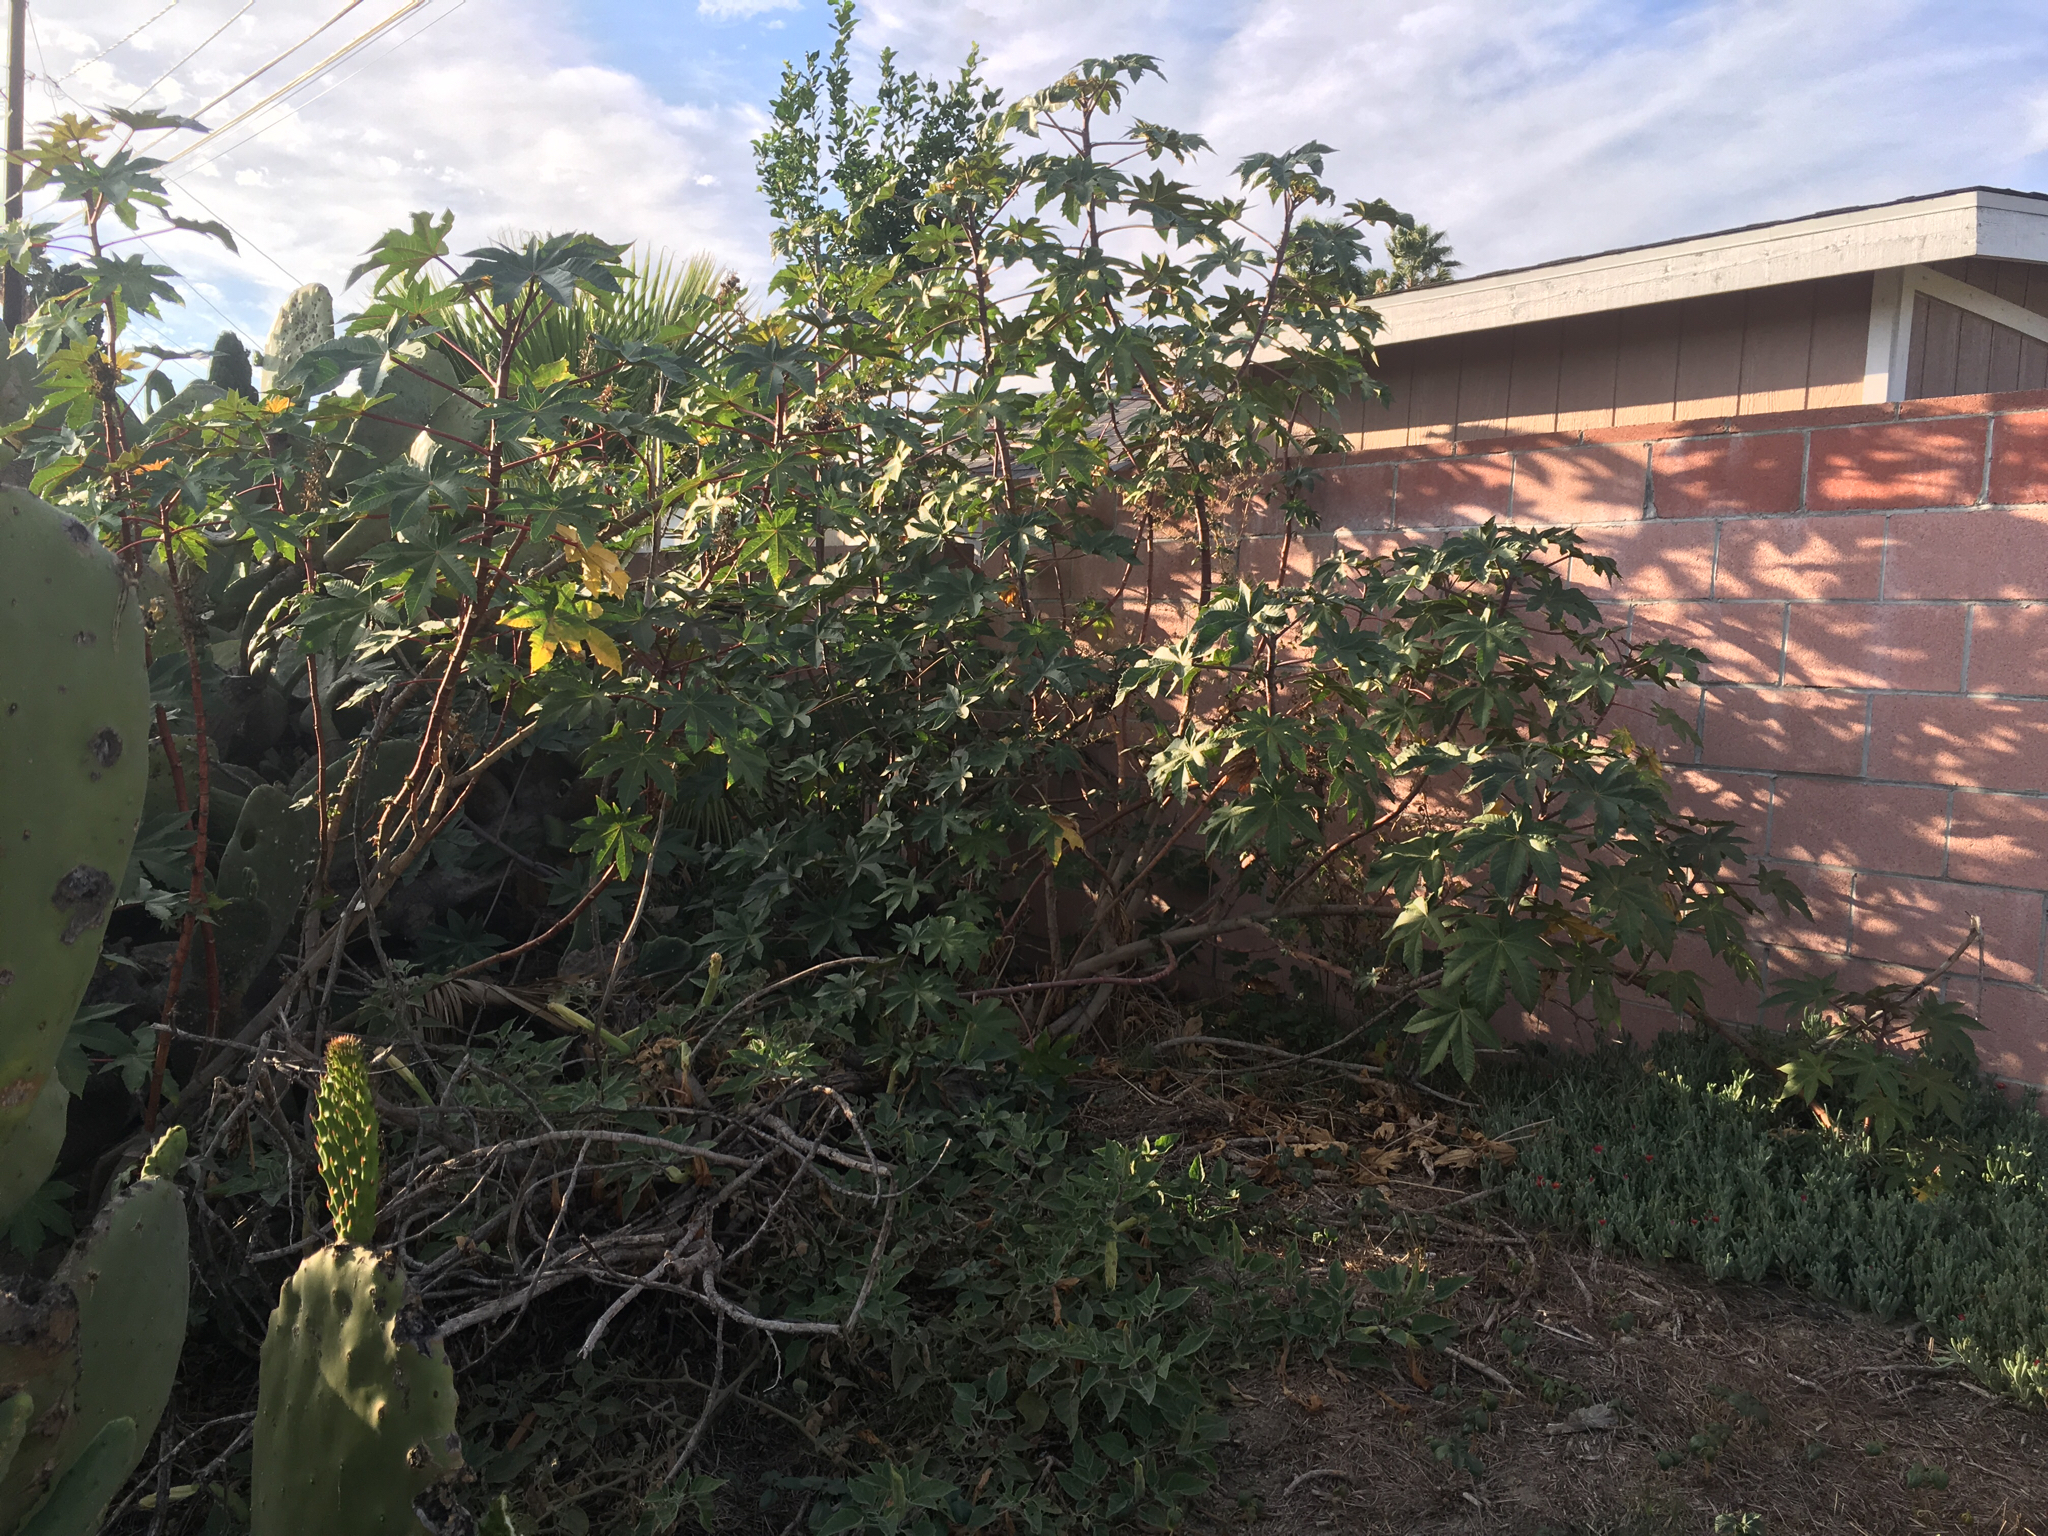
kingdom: Plantae
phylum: Tracheophyta
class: Magnoliopsida
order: Malpighiales
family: Euphorbiaceae
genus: Ricinus
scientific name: Ricinus communis
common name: Castor-oil-plant
